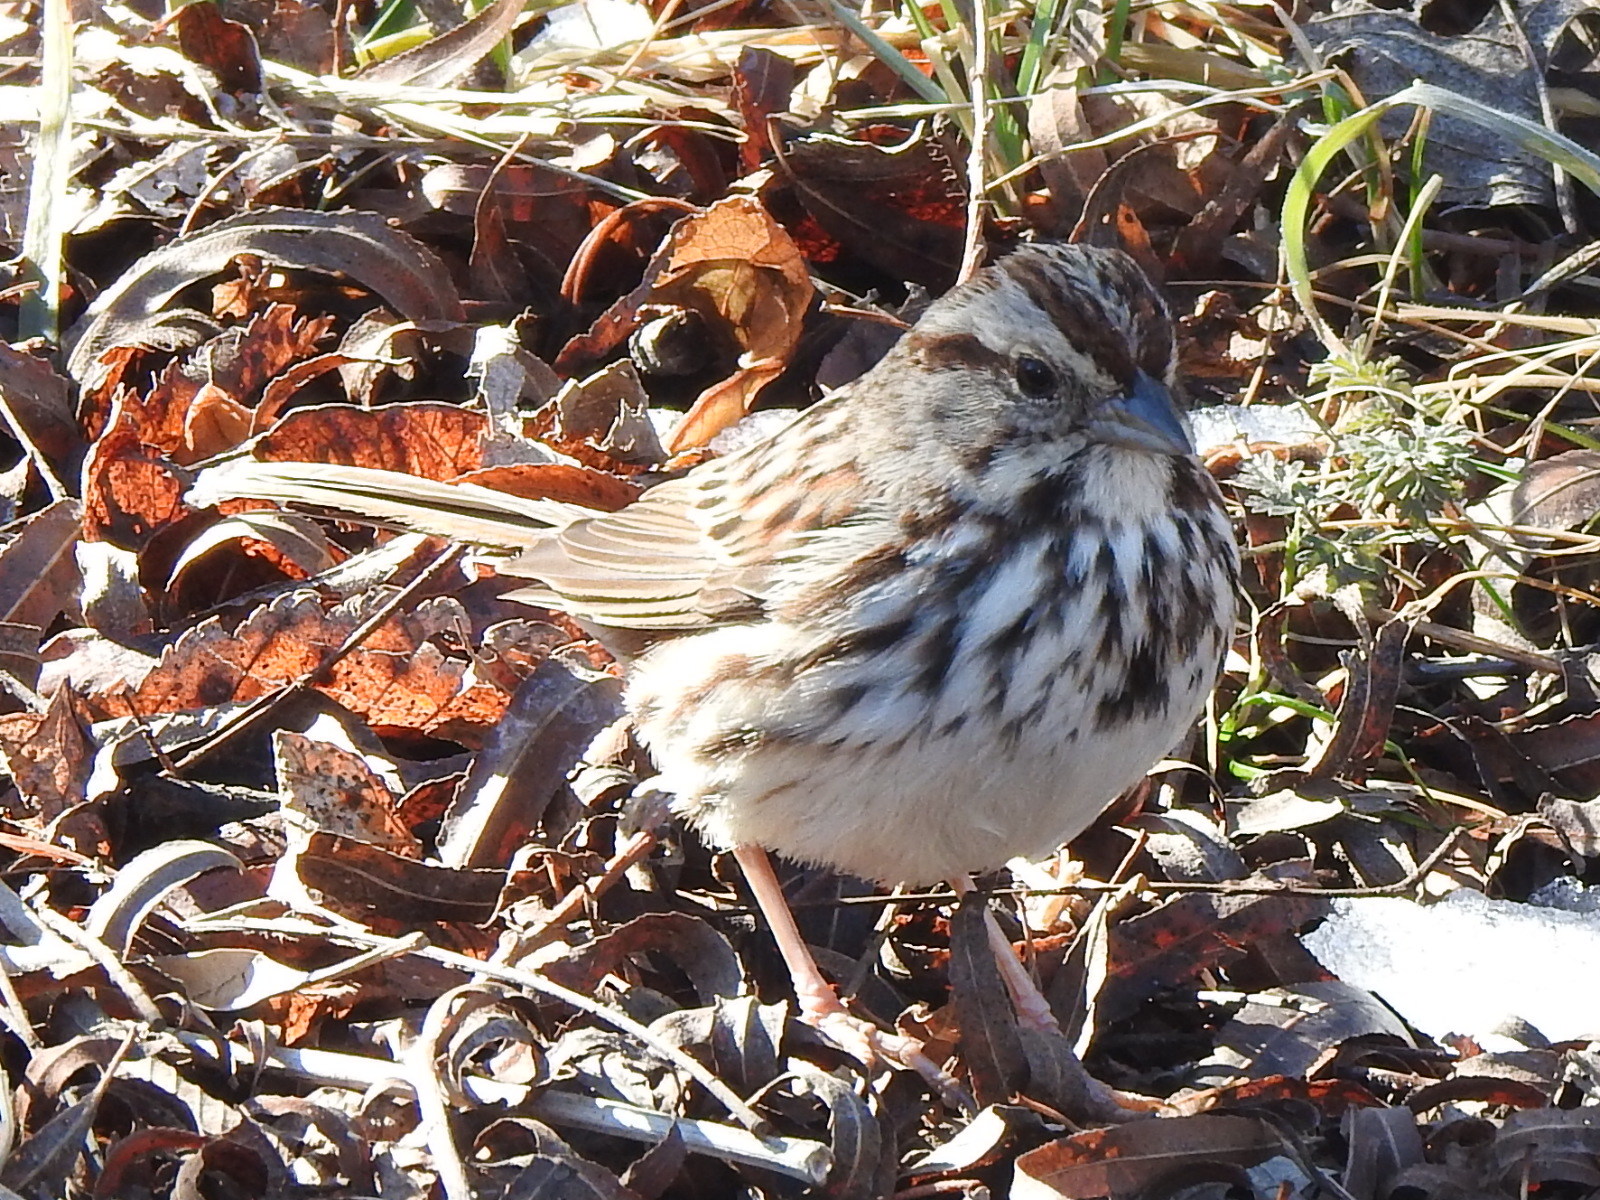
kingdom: Animalia
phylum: Chordata
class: Aves
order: Passeriformes
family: Passerellidae
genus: Melospiza
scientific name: Melospiza melodia
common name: Song sparrow
